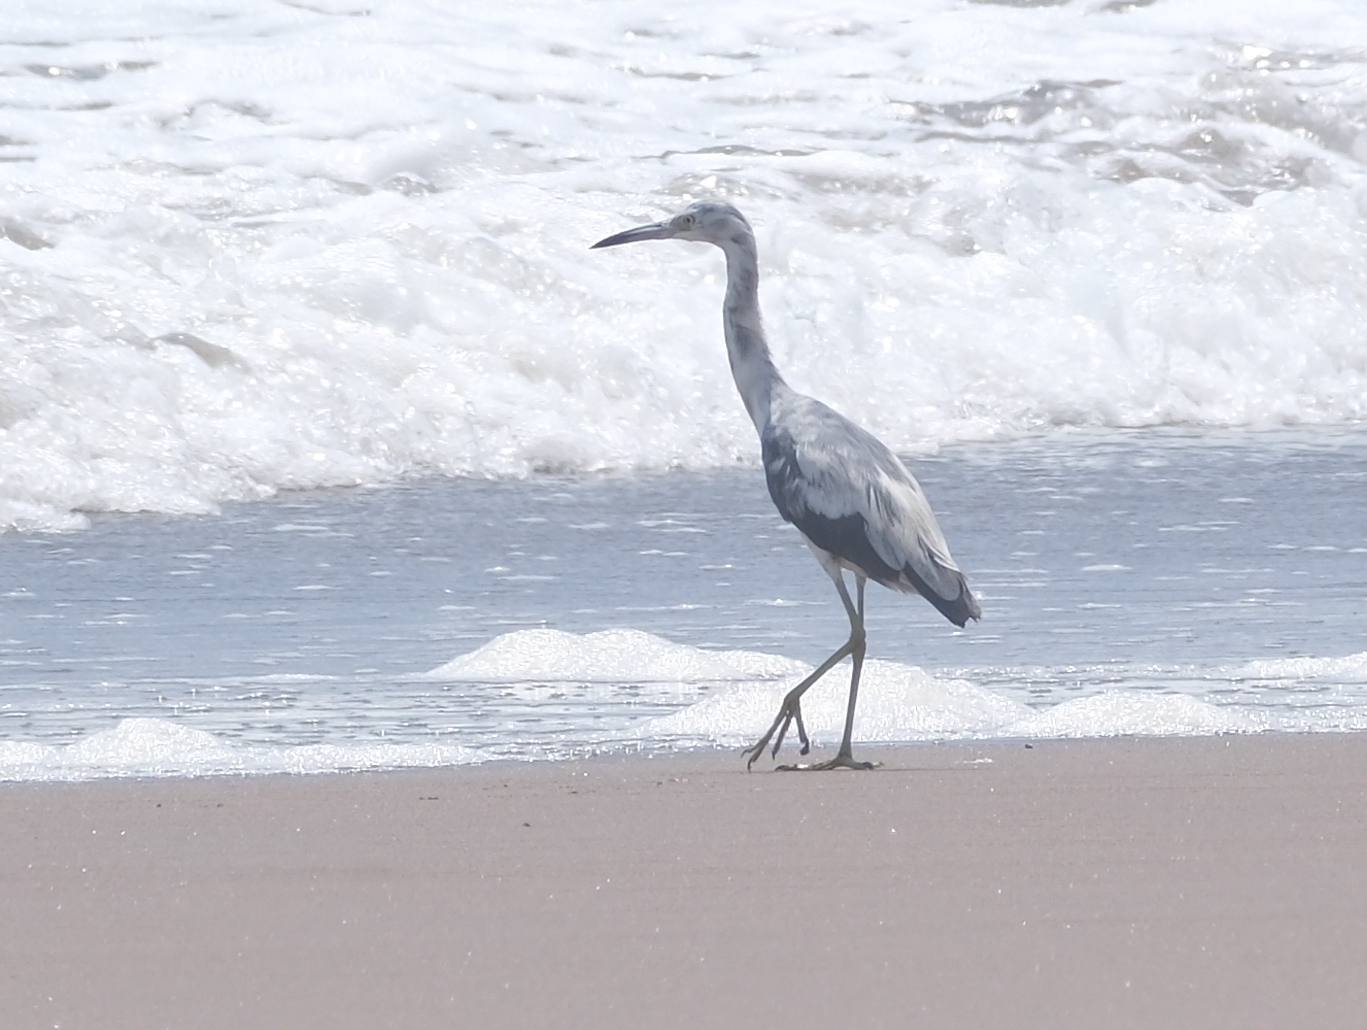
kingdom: Animalia
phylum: Chordata
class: Aves
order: Pelecaniformes
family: Ardeidae
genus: Egretta
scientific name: Egretta caerulea
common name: Little blue heron
